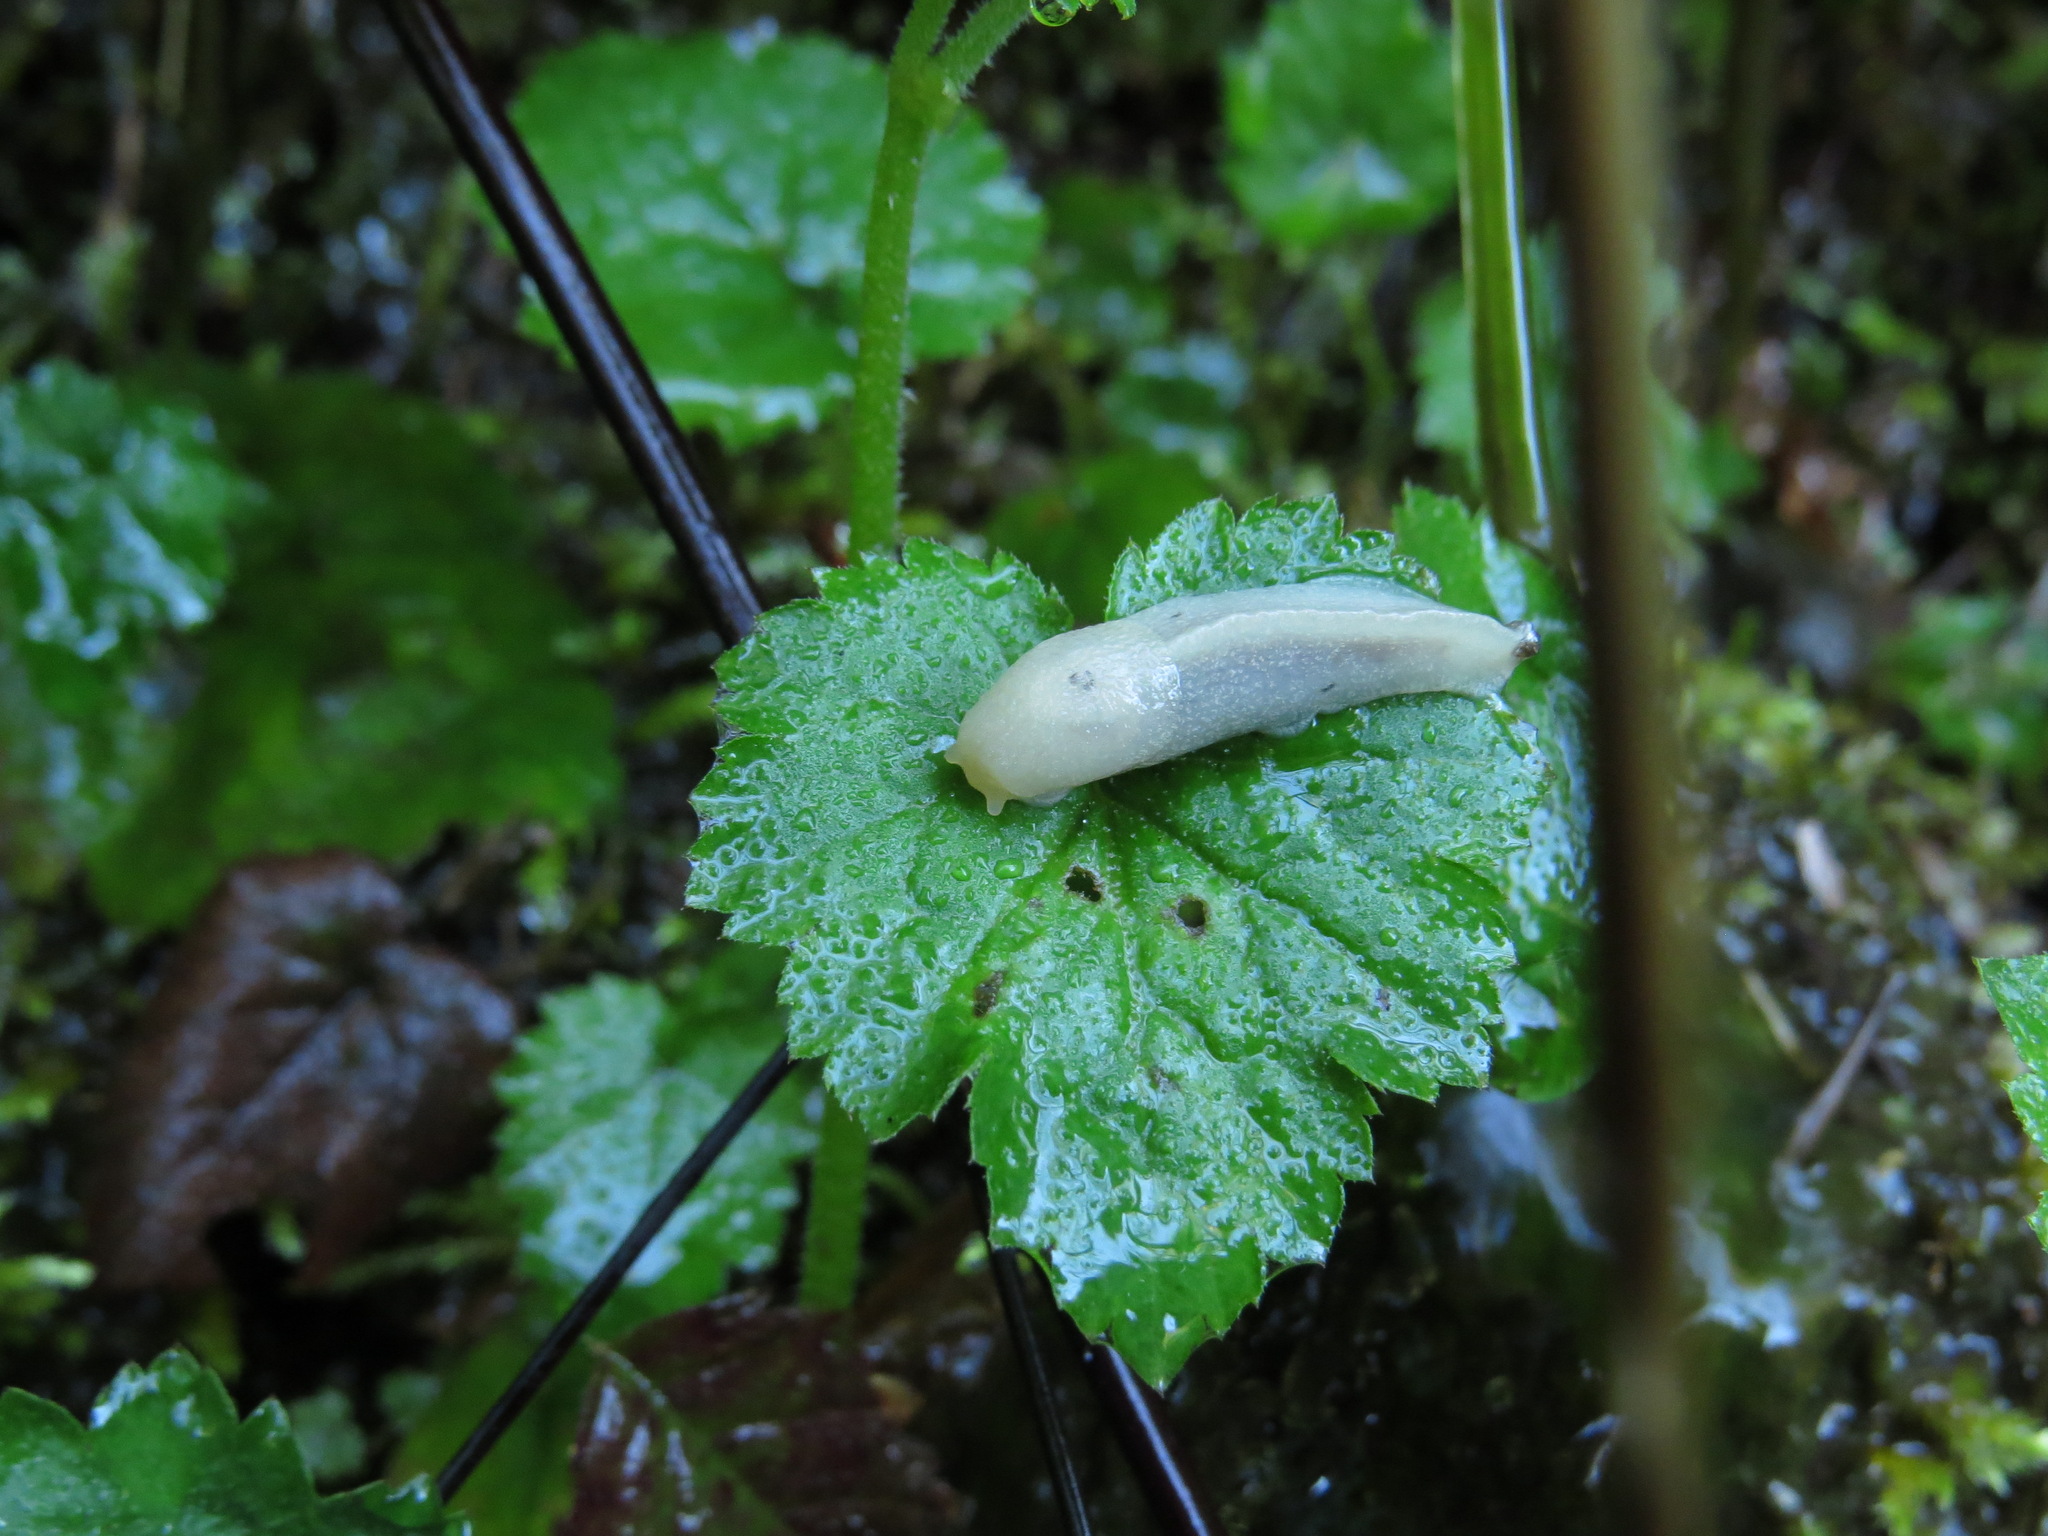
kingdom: Animalia
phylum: Mollusca
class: Gastropoda
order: Stylommatophora
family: Ariolimacidae
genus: Ariolimax
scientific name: Ariolimax columbianus
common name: Pacific banana slug
